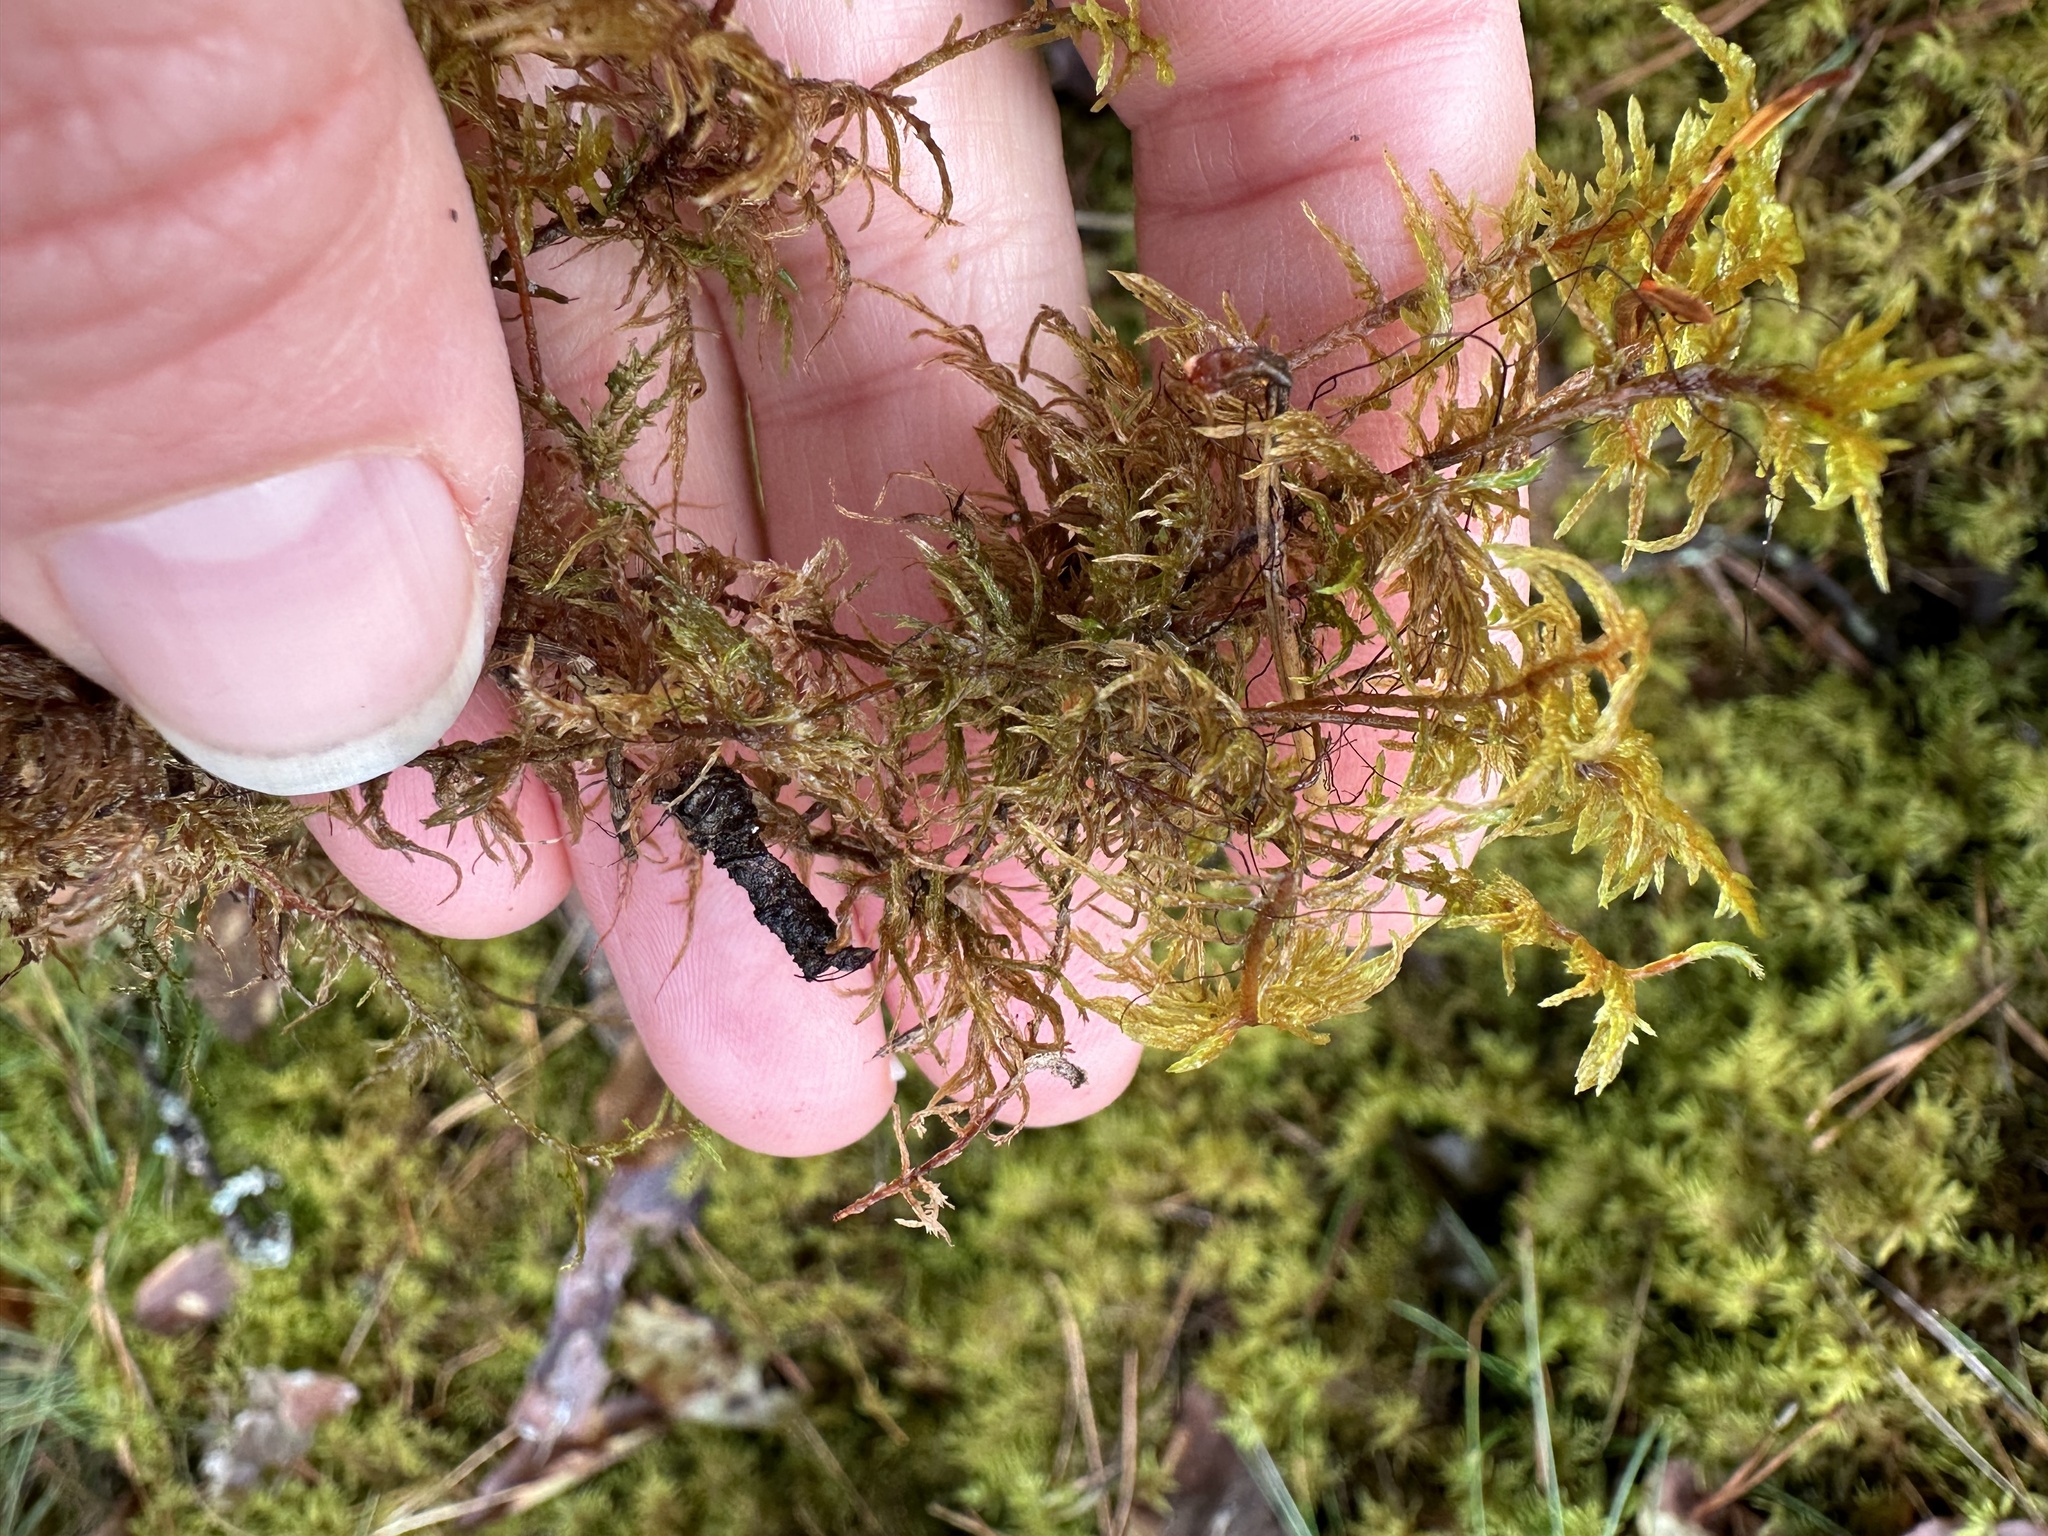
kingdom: Plantae
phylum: Bryophyta
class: Bryopsida
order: Hypnales
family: Hylocomiaceae
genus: Hylocomium
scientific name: Hylocomium splendens
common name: Stairstep moss
